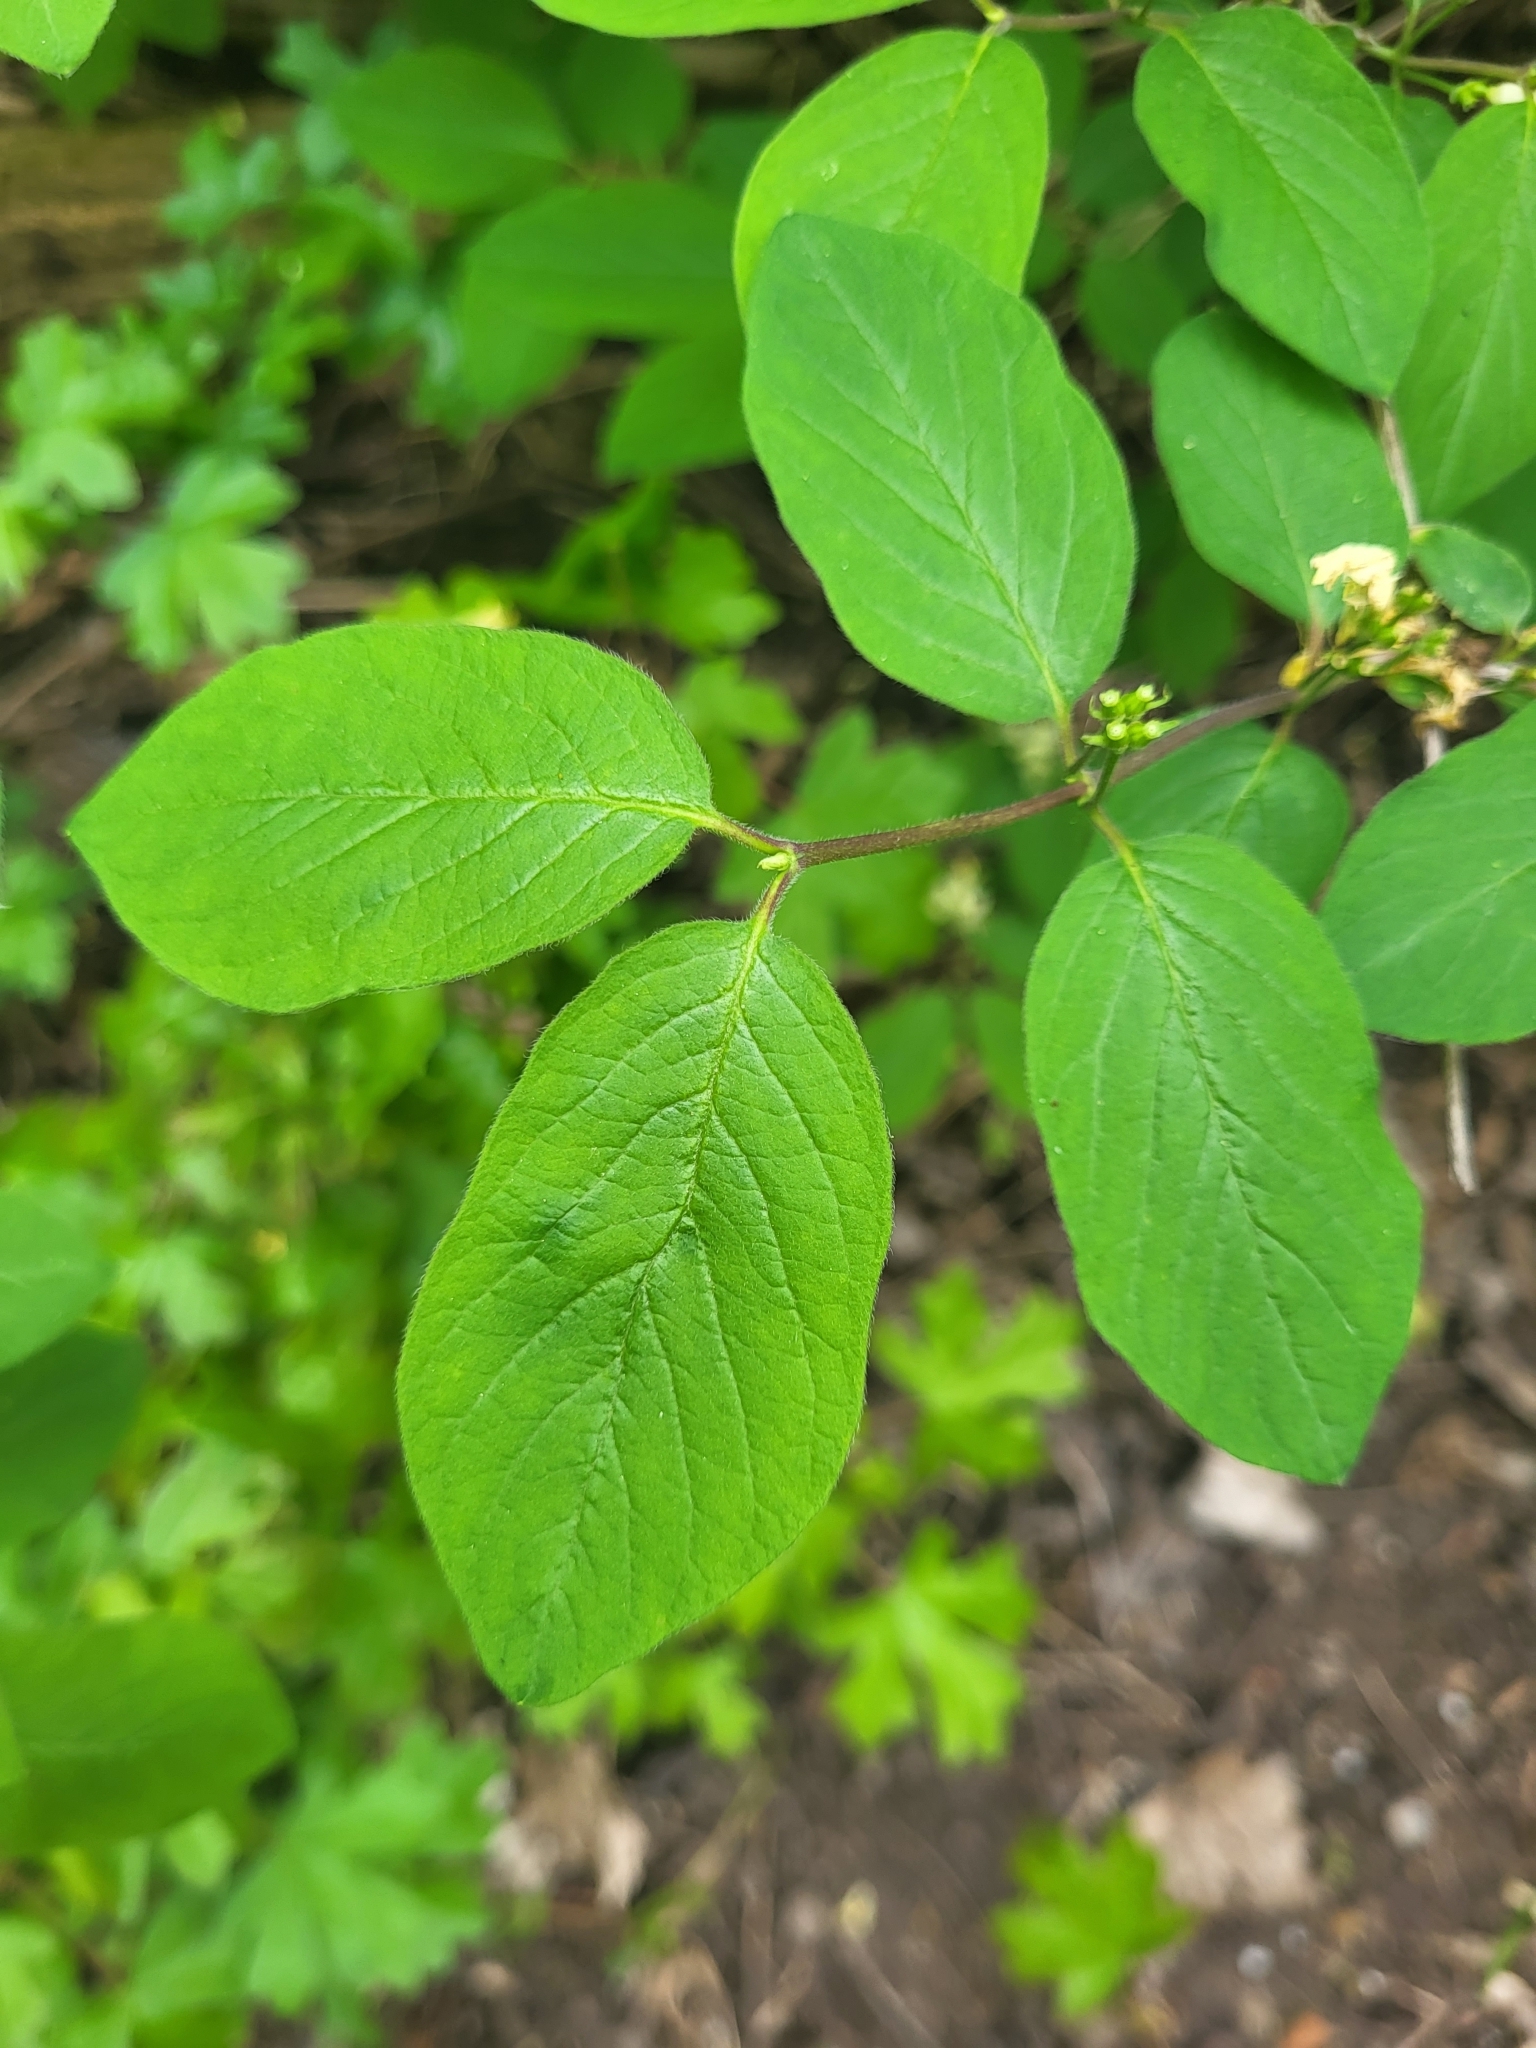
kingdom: Plantae
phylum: Tracheophyta
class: Magnoliopsida
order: Dipsacales
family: Caprifoliaceae
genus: Lonicera
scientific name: Lonicera xylosteum
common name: Fly honeysuckle
